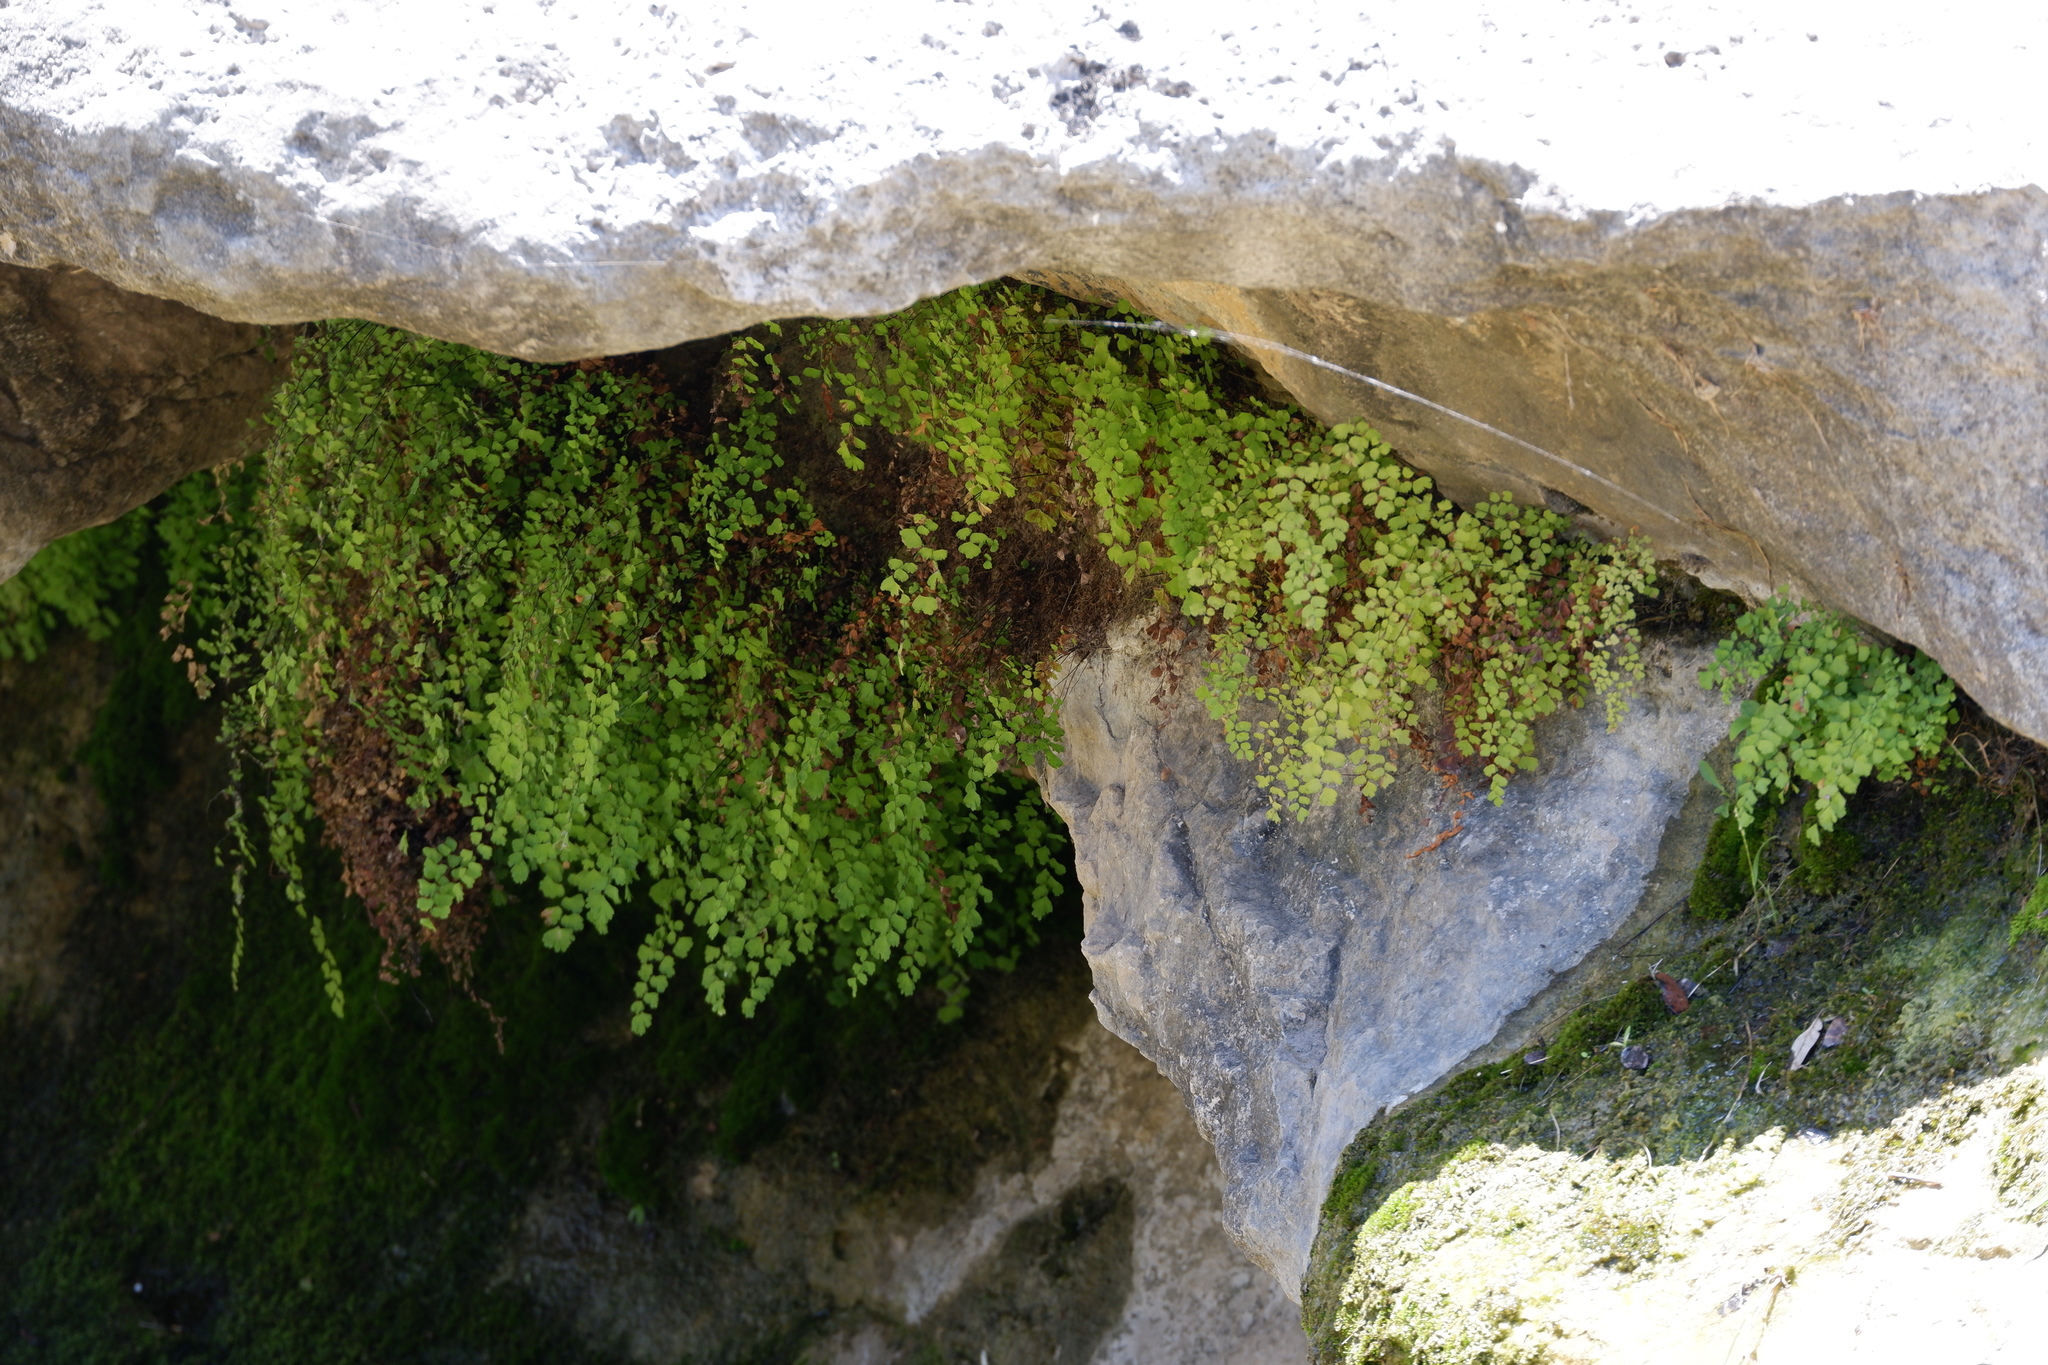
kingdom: Plantae
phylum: Tracheophyta
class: Polypodiopsida
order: Polypodiales
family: Pteridaceae
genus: Adiantum
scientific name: Adiantum capillus-veneris
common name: Maidenhair fern
